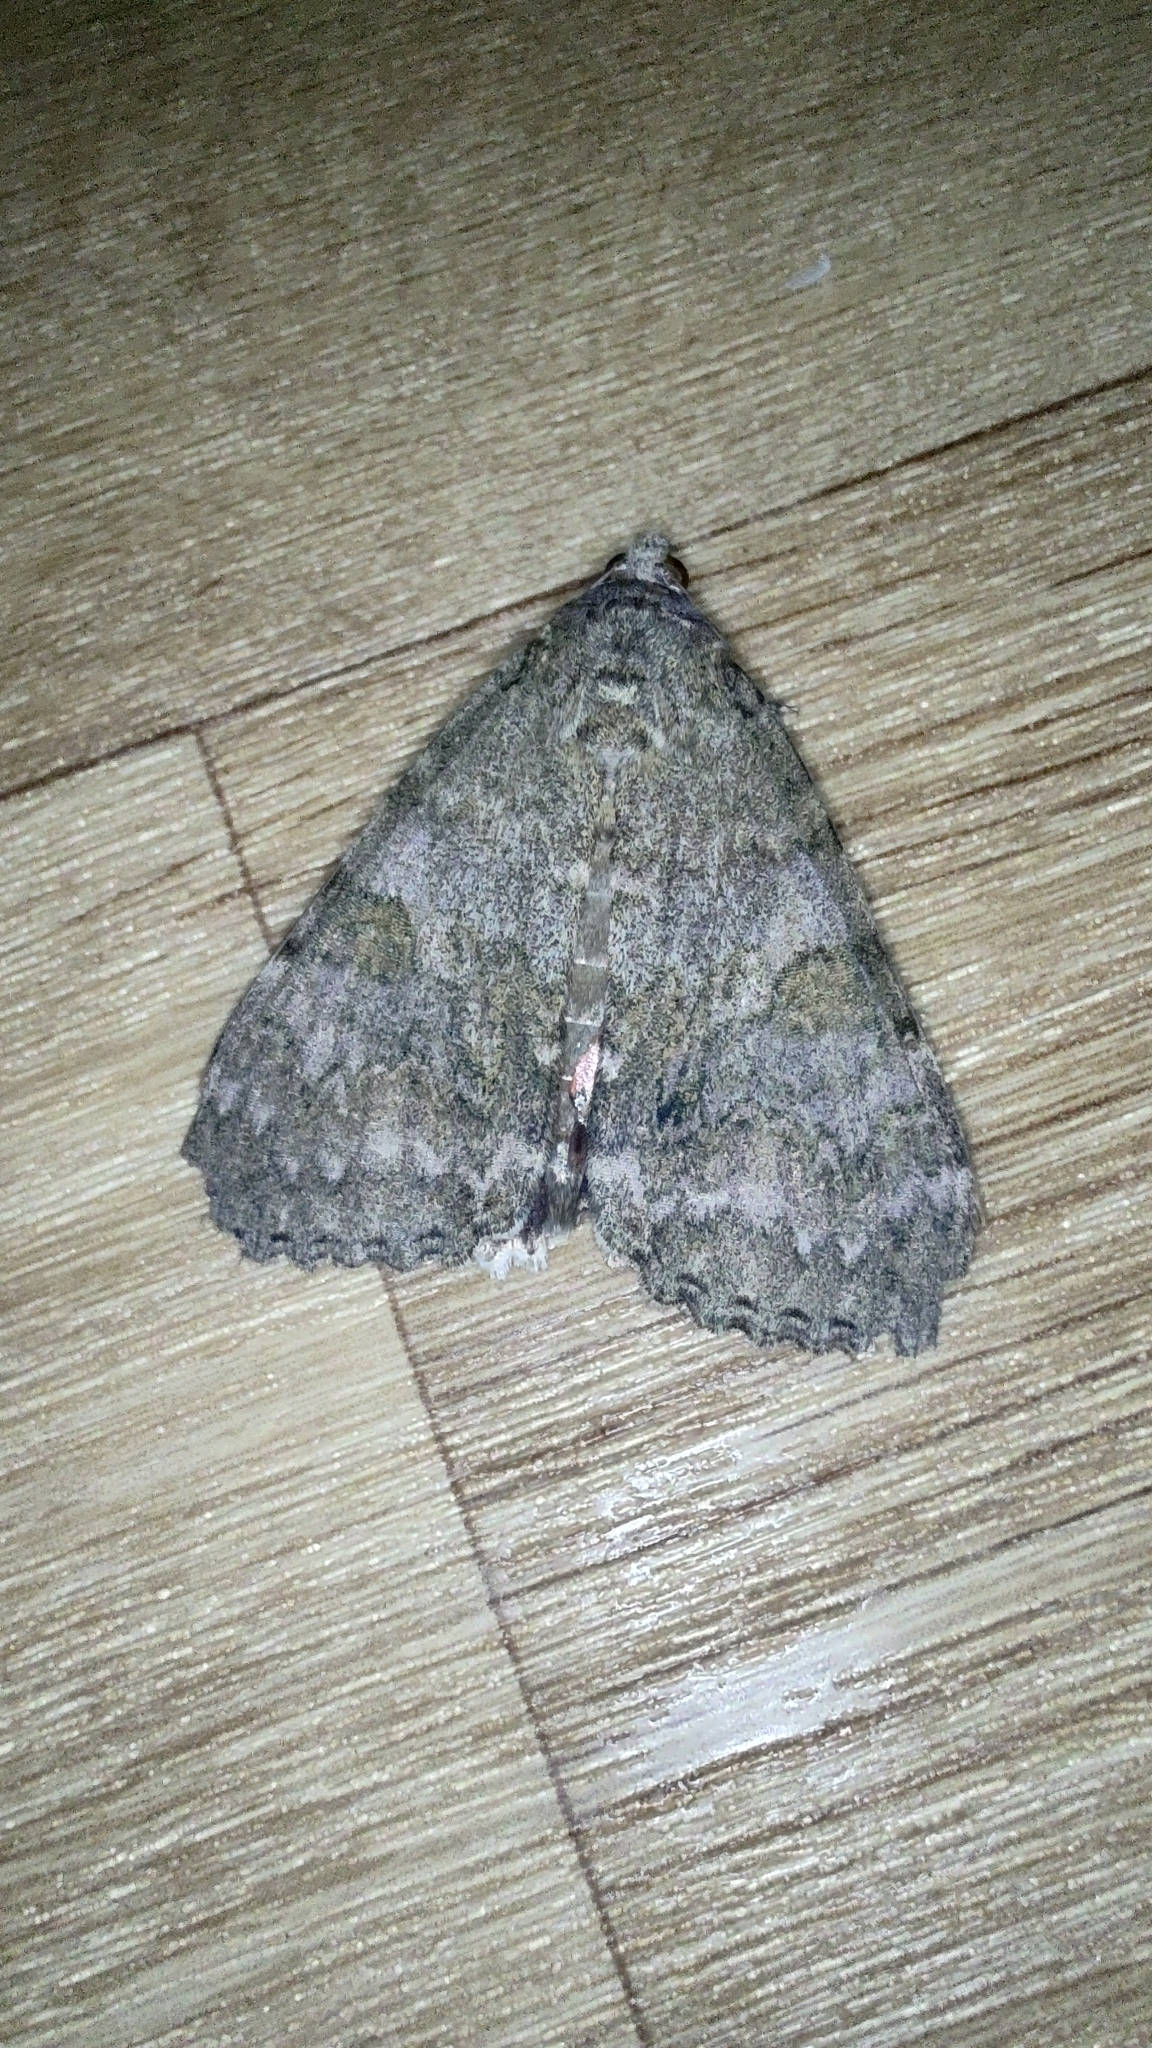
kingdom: Animalia
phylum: Arthropoda
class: Insecta
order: Lepidoptera
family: Erebidae
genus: Catocala
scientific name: Catocala nupta
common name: Red underwing
